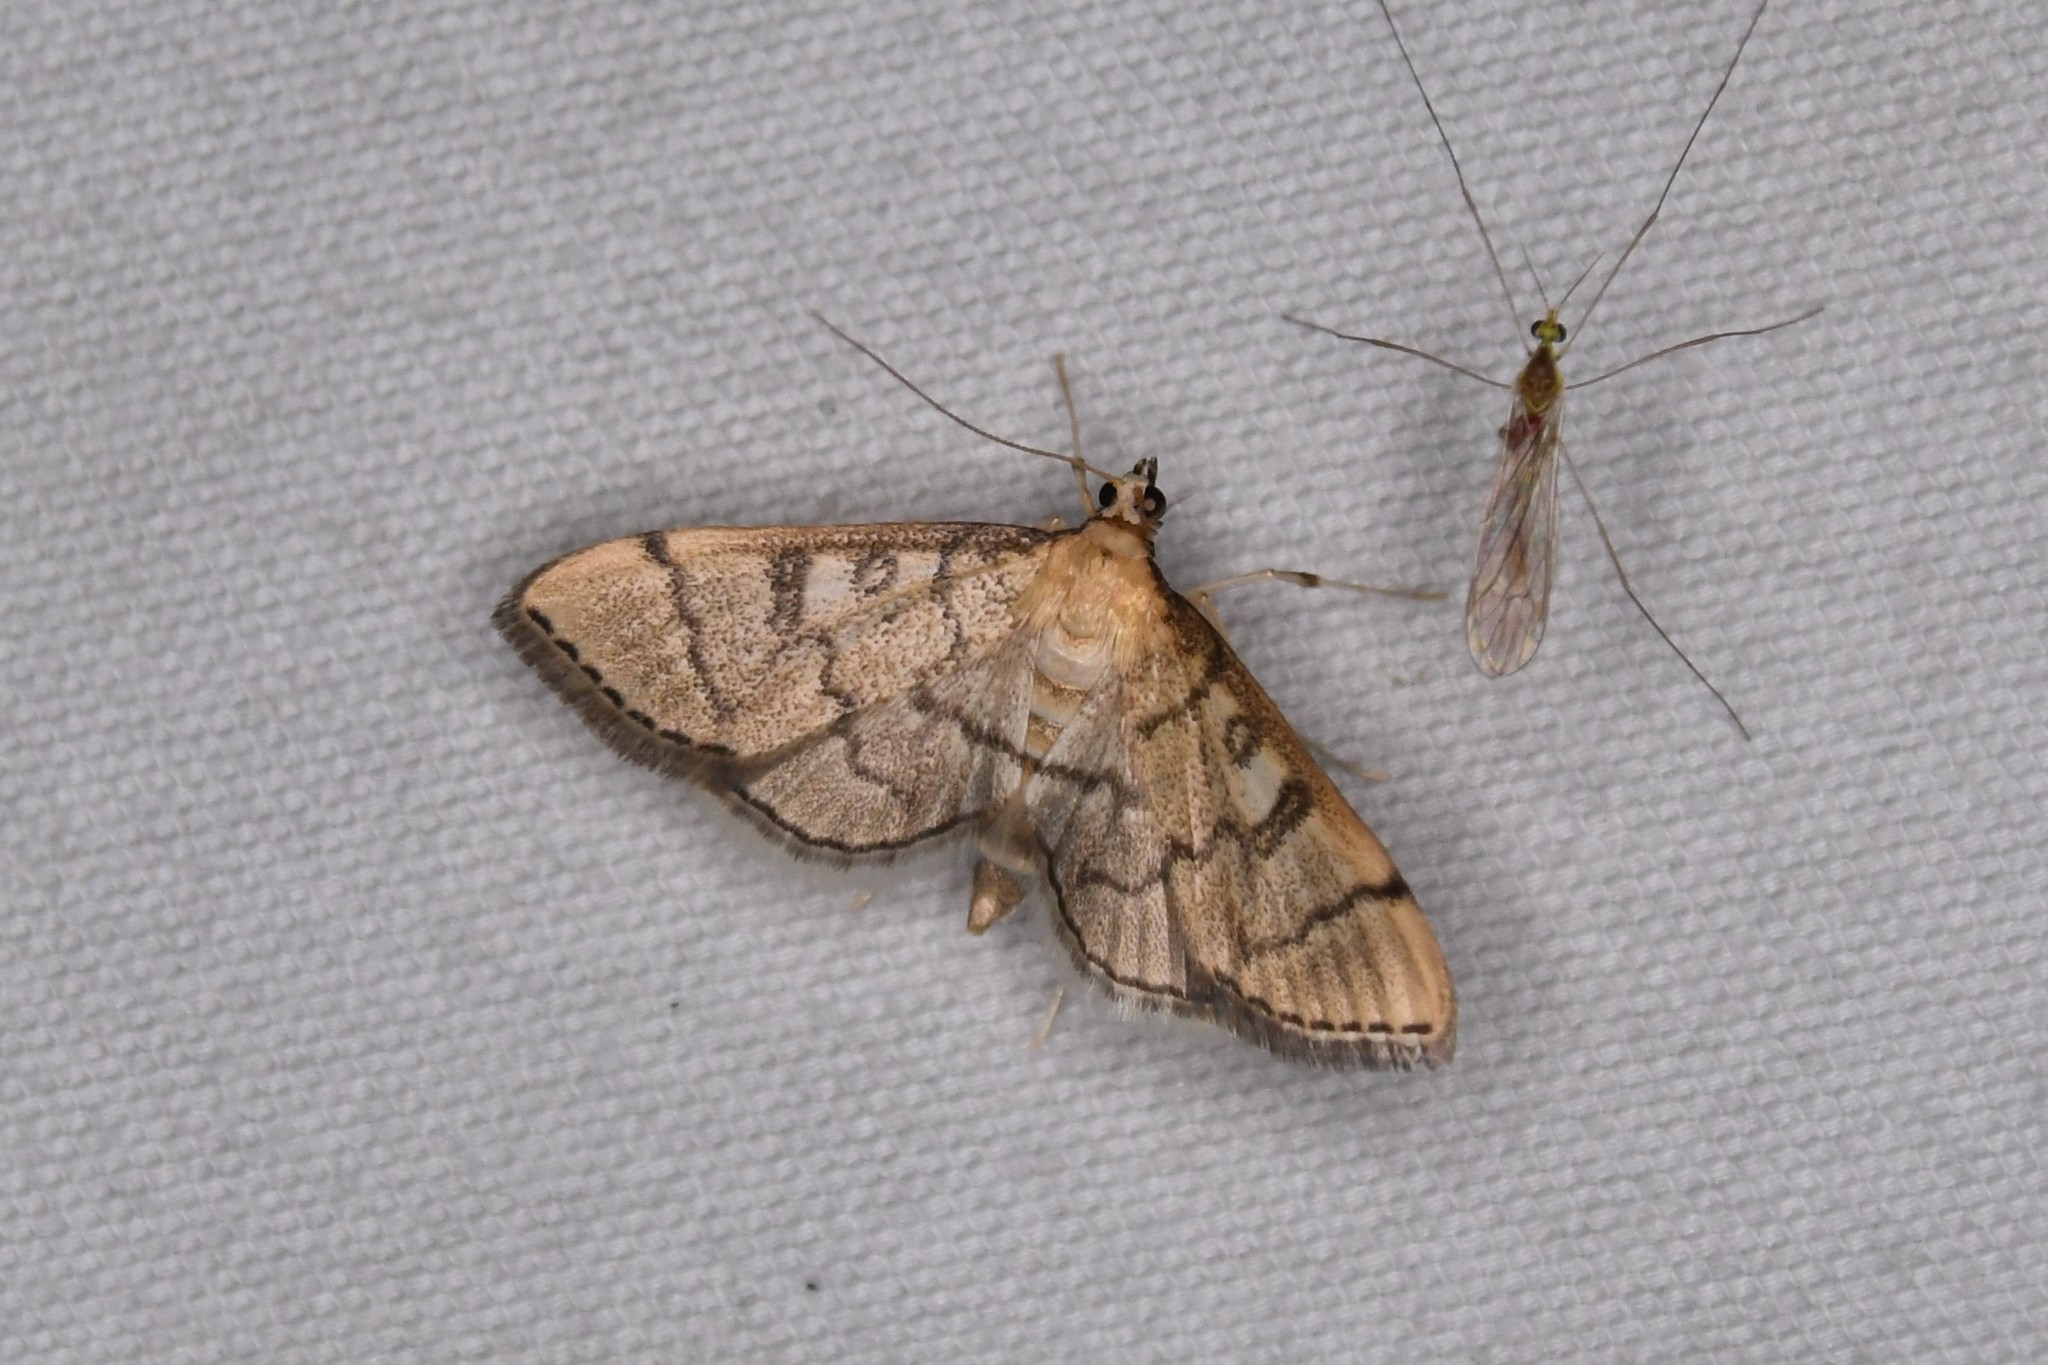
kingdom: Animalia
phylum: Arthropoda
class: Insecta
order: Lepidoptera
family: Crambidae
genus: Lamprosema
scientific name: Lamprosema Blepharomastix ranalis
